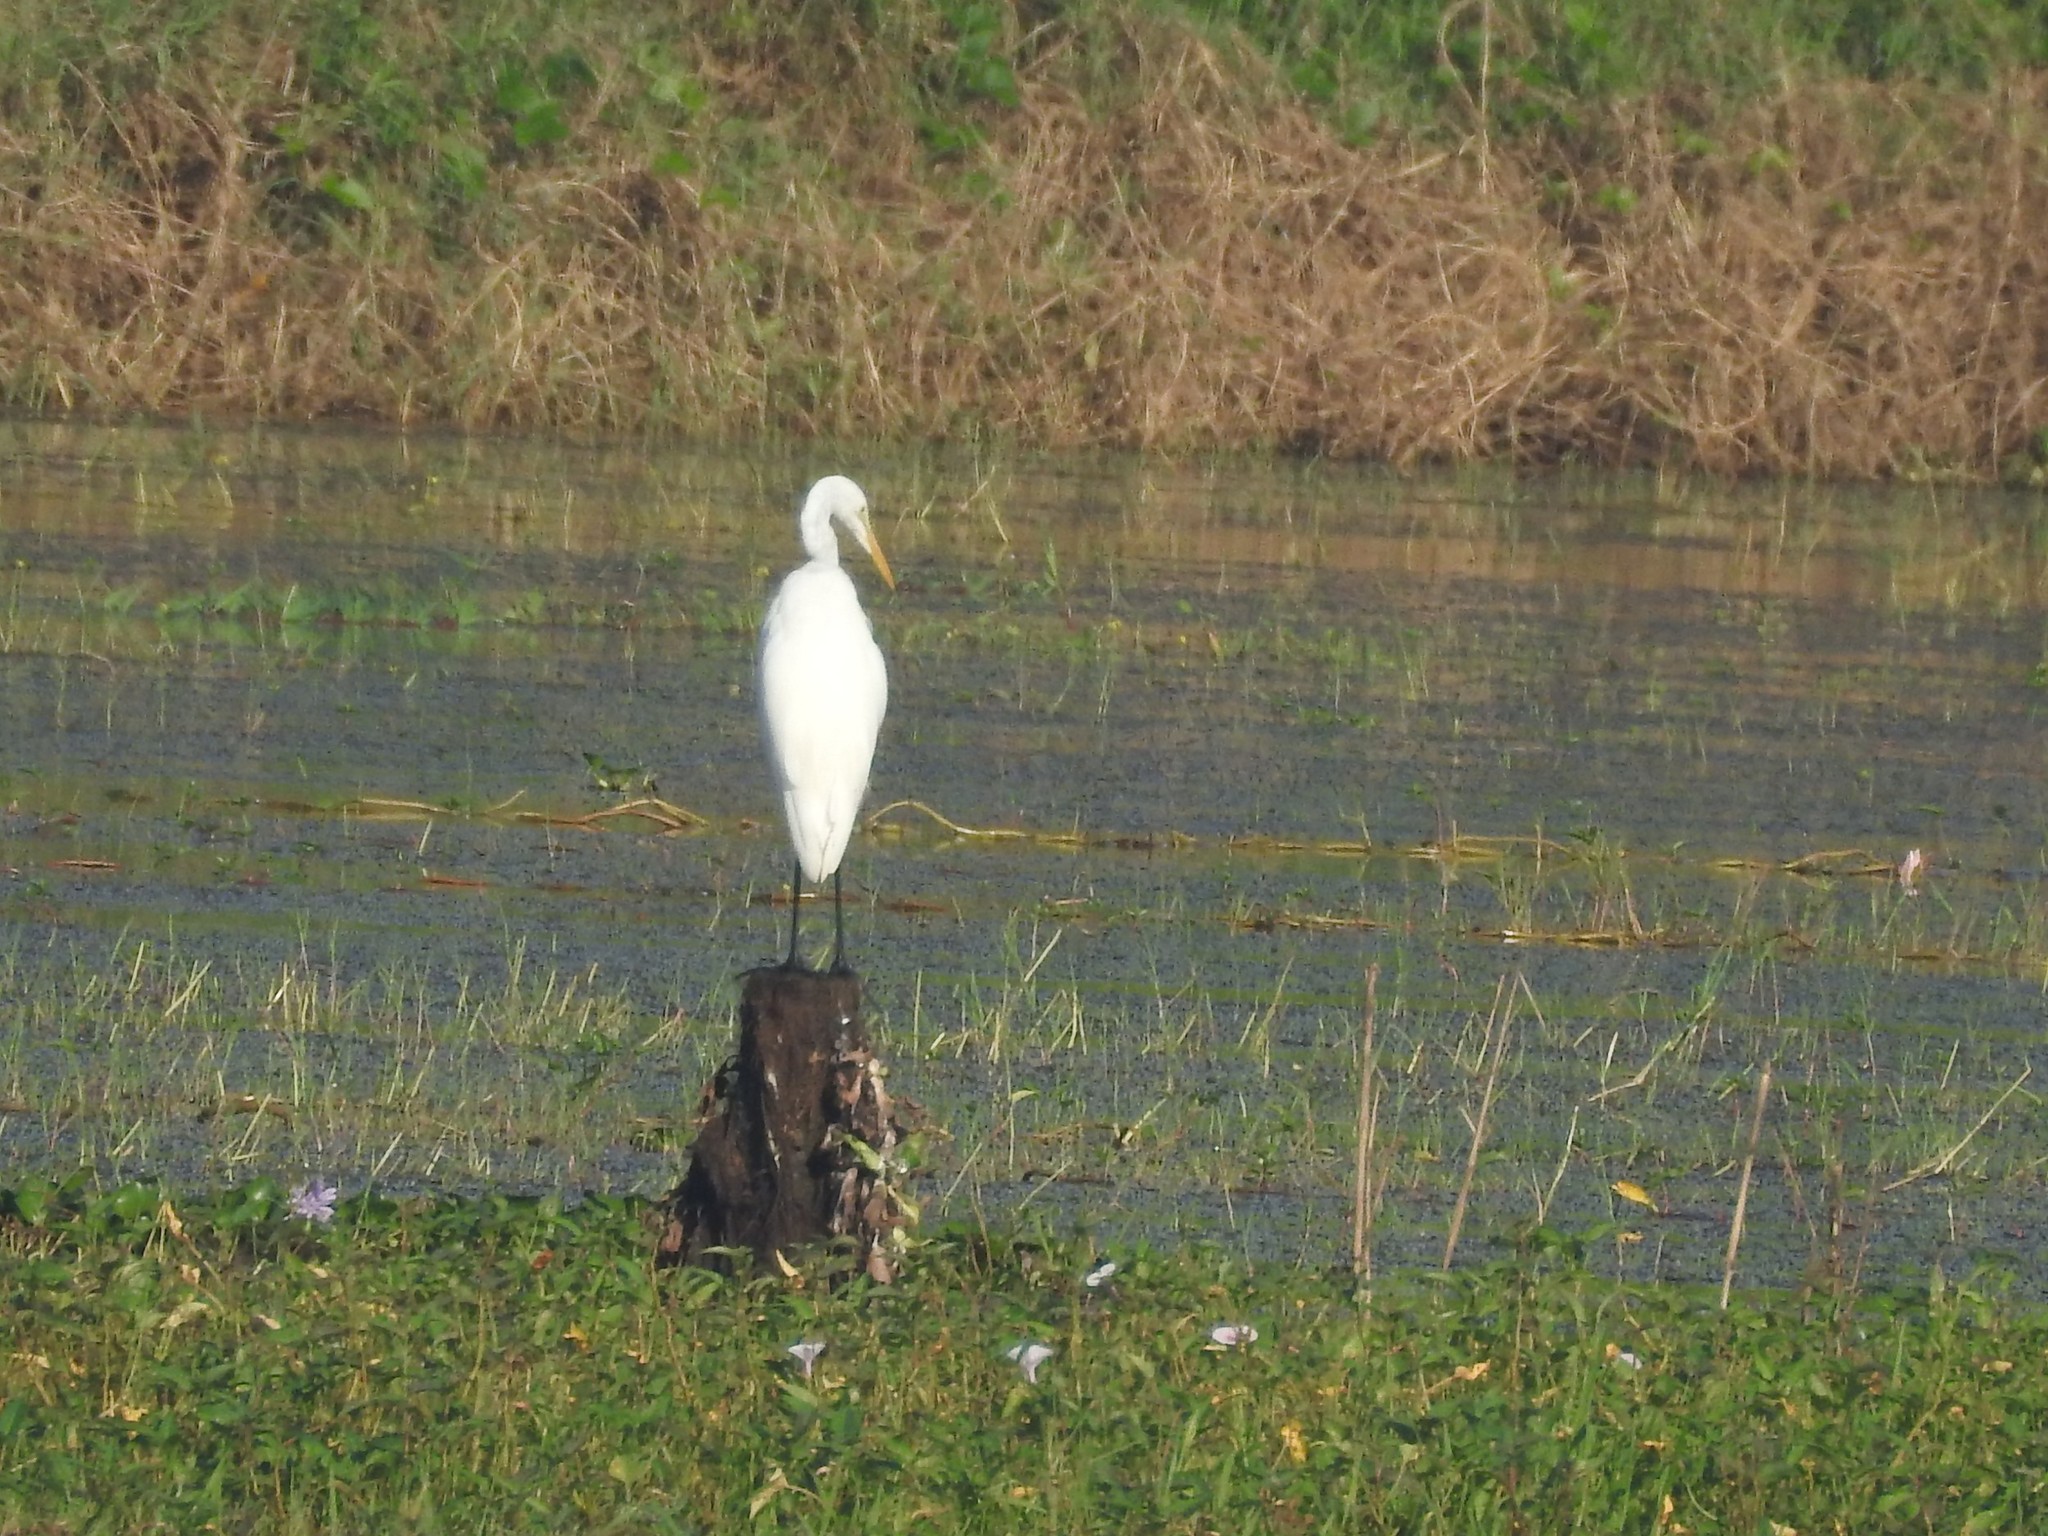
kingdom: Animalia
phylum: Chordata
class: Aves
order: Pelecaniformes
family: Ardeidae
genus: Ardea
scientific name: Ardea alba
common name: Great egret
